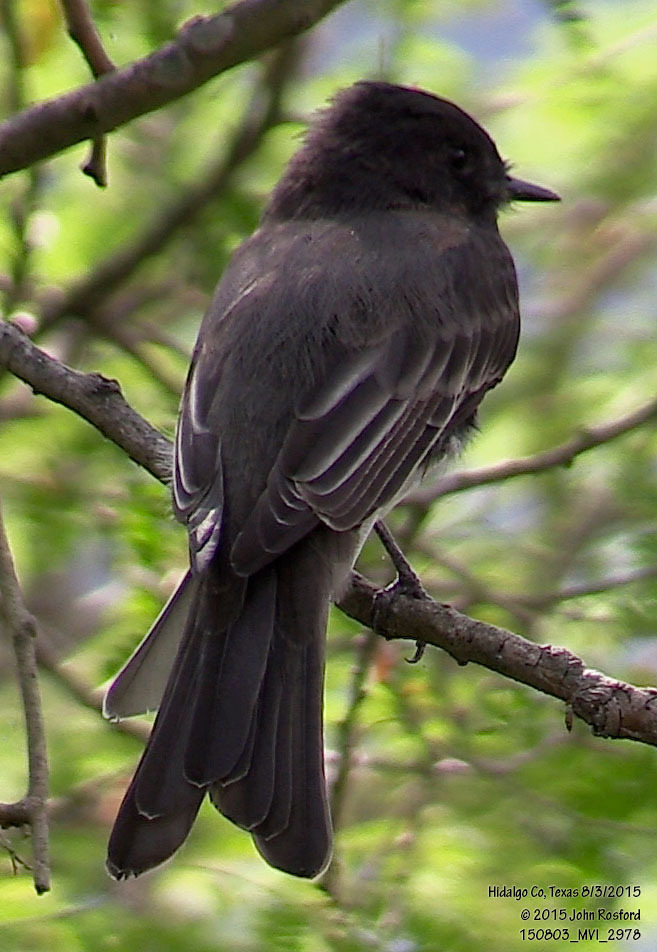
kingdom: Animalia
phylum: Chordata
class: Aves
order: Passeriformes
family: Tyrannidae
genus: Sayornis
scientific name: Sayornis nigricans
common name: Black phoebe
